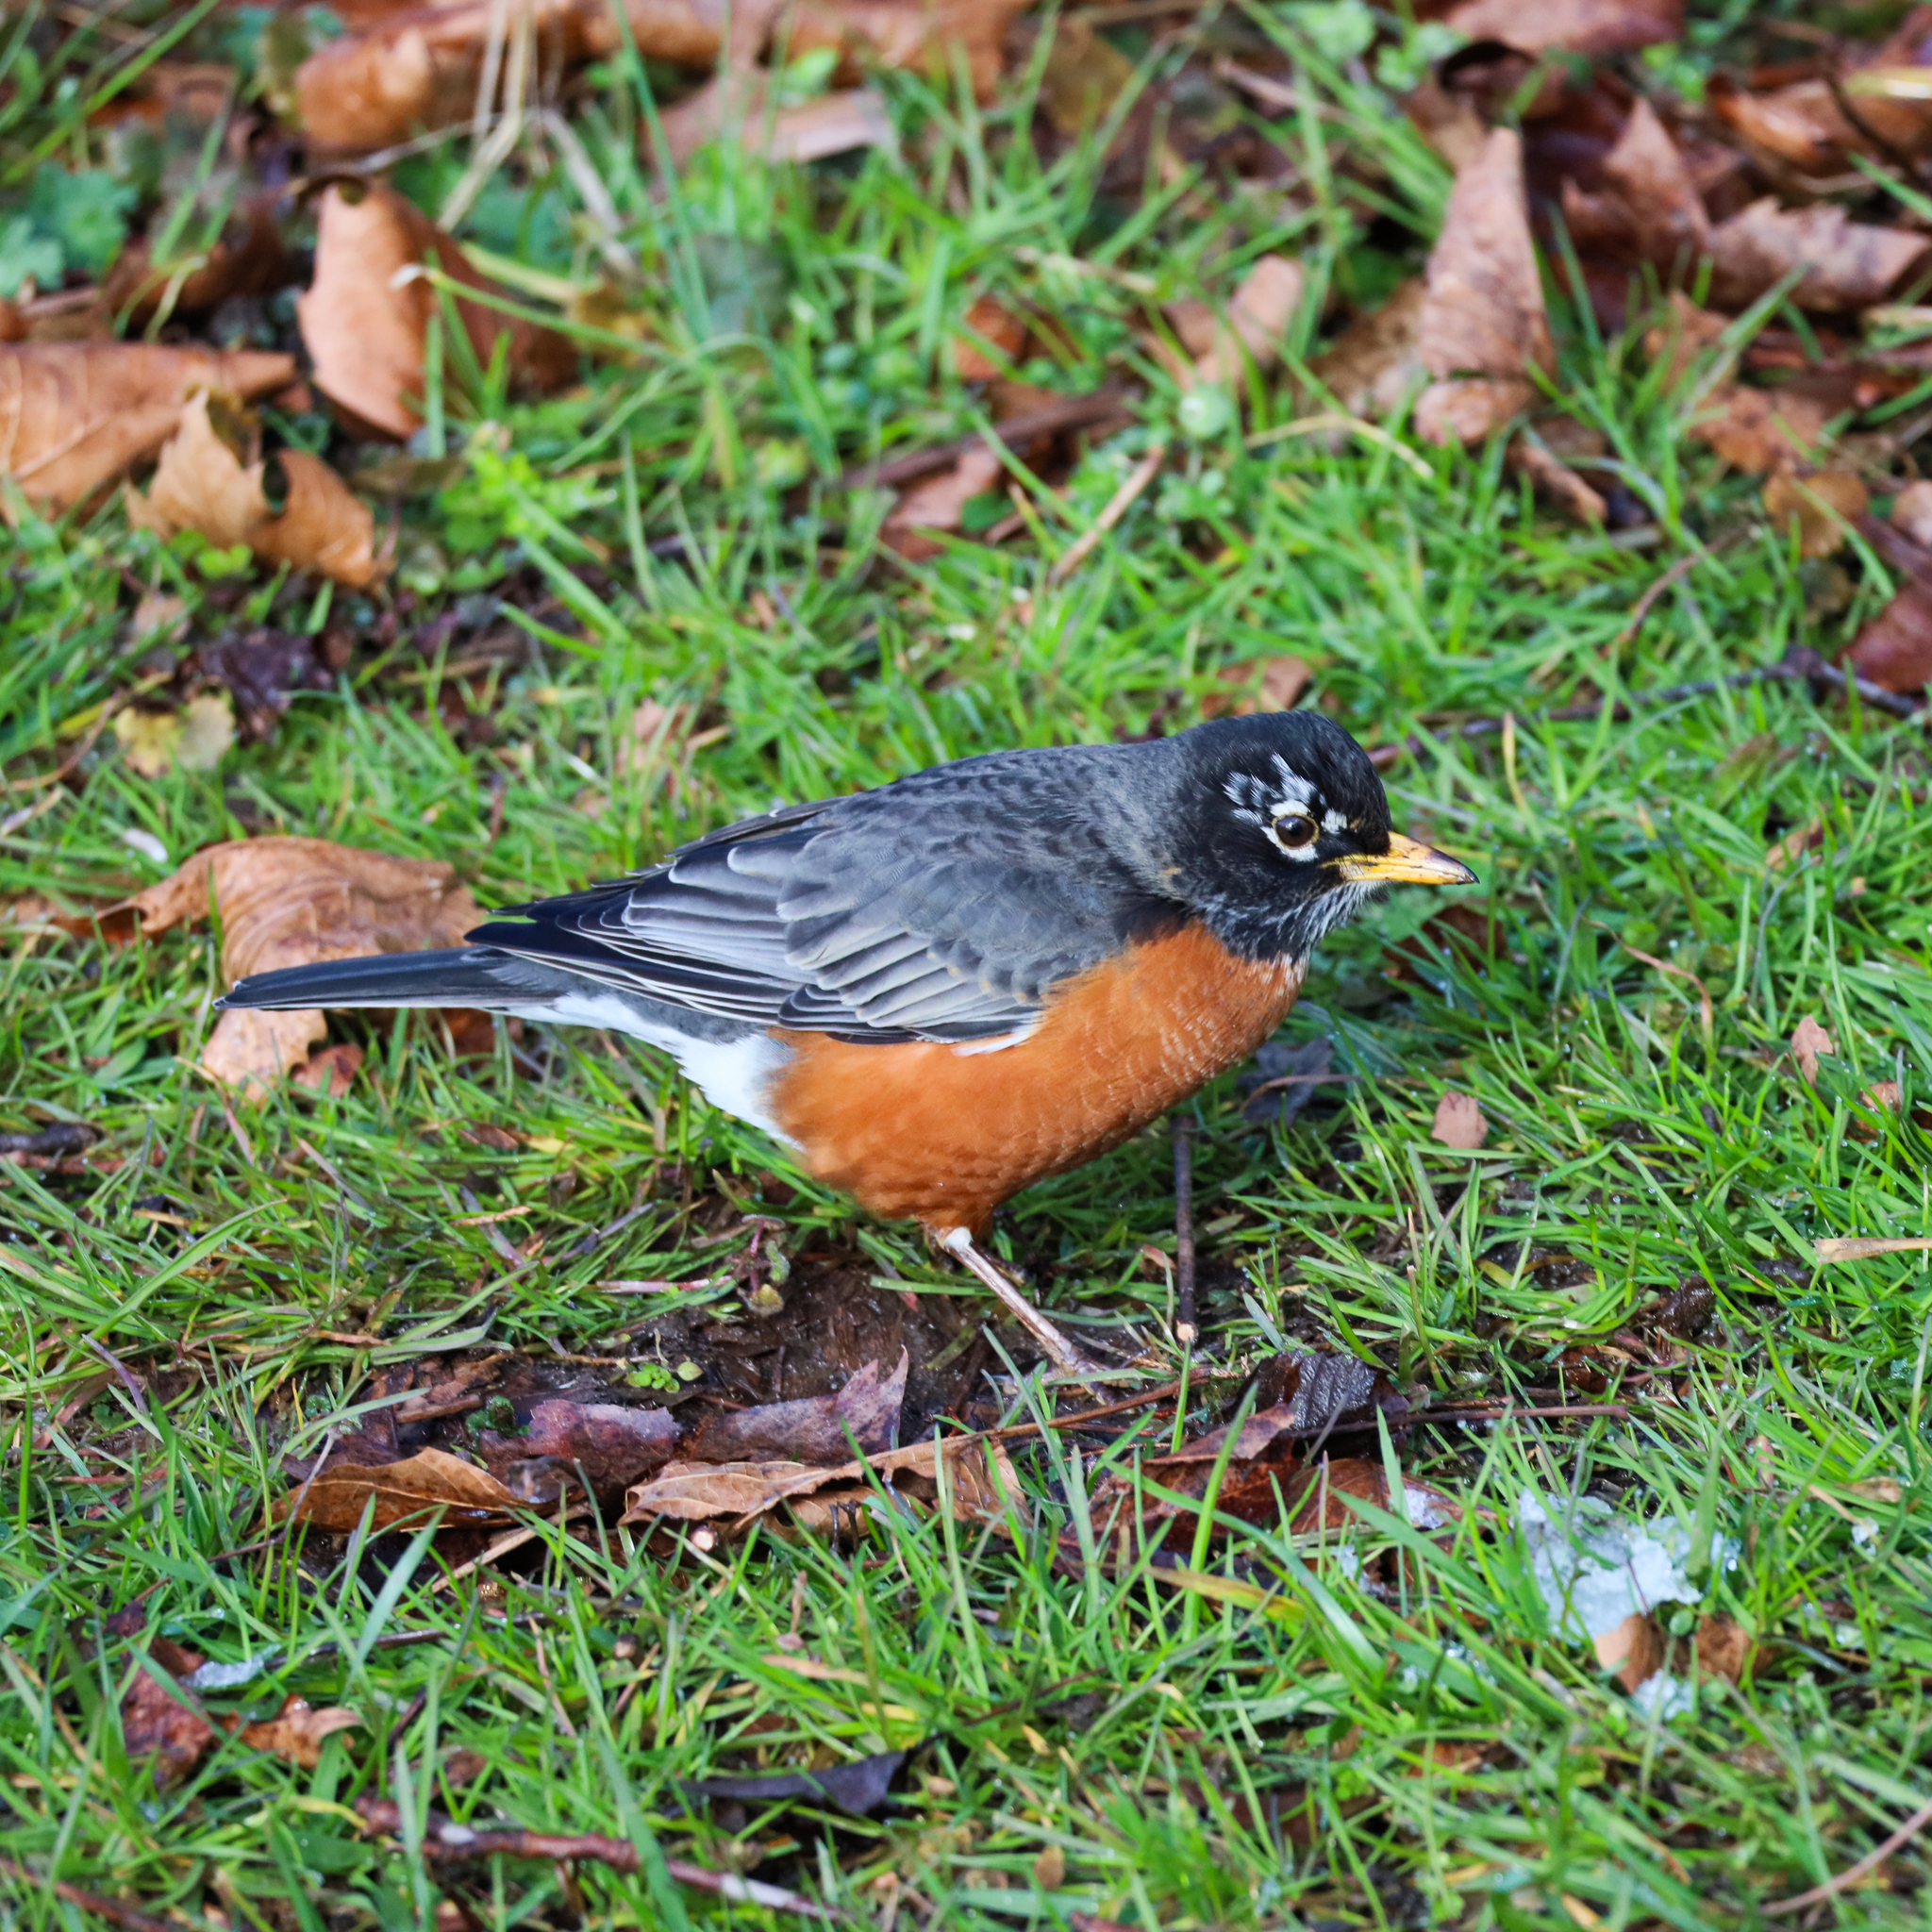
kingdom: Animalia
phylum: Chordata
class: Aves
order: Passeriformes
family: Turdidae
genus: Turdus
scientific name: Turdus migratorius
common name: American robin
